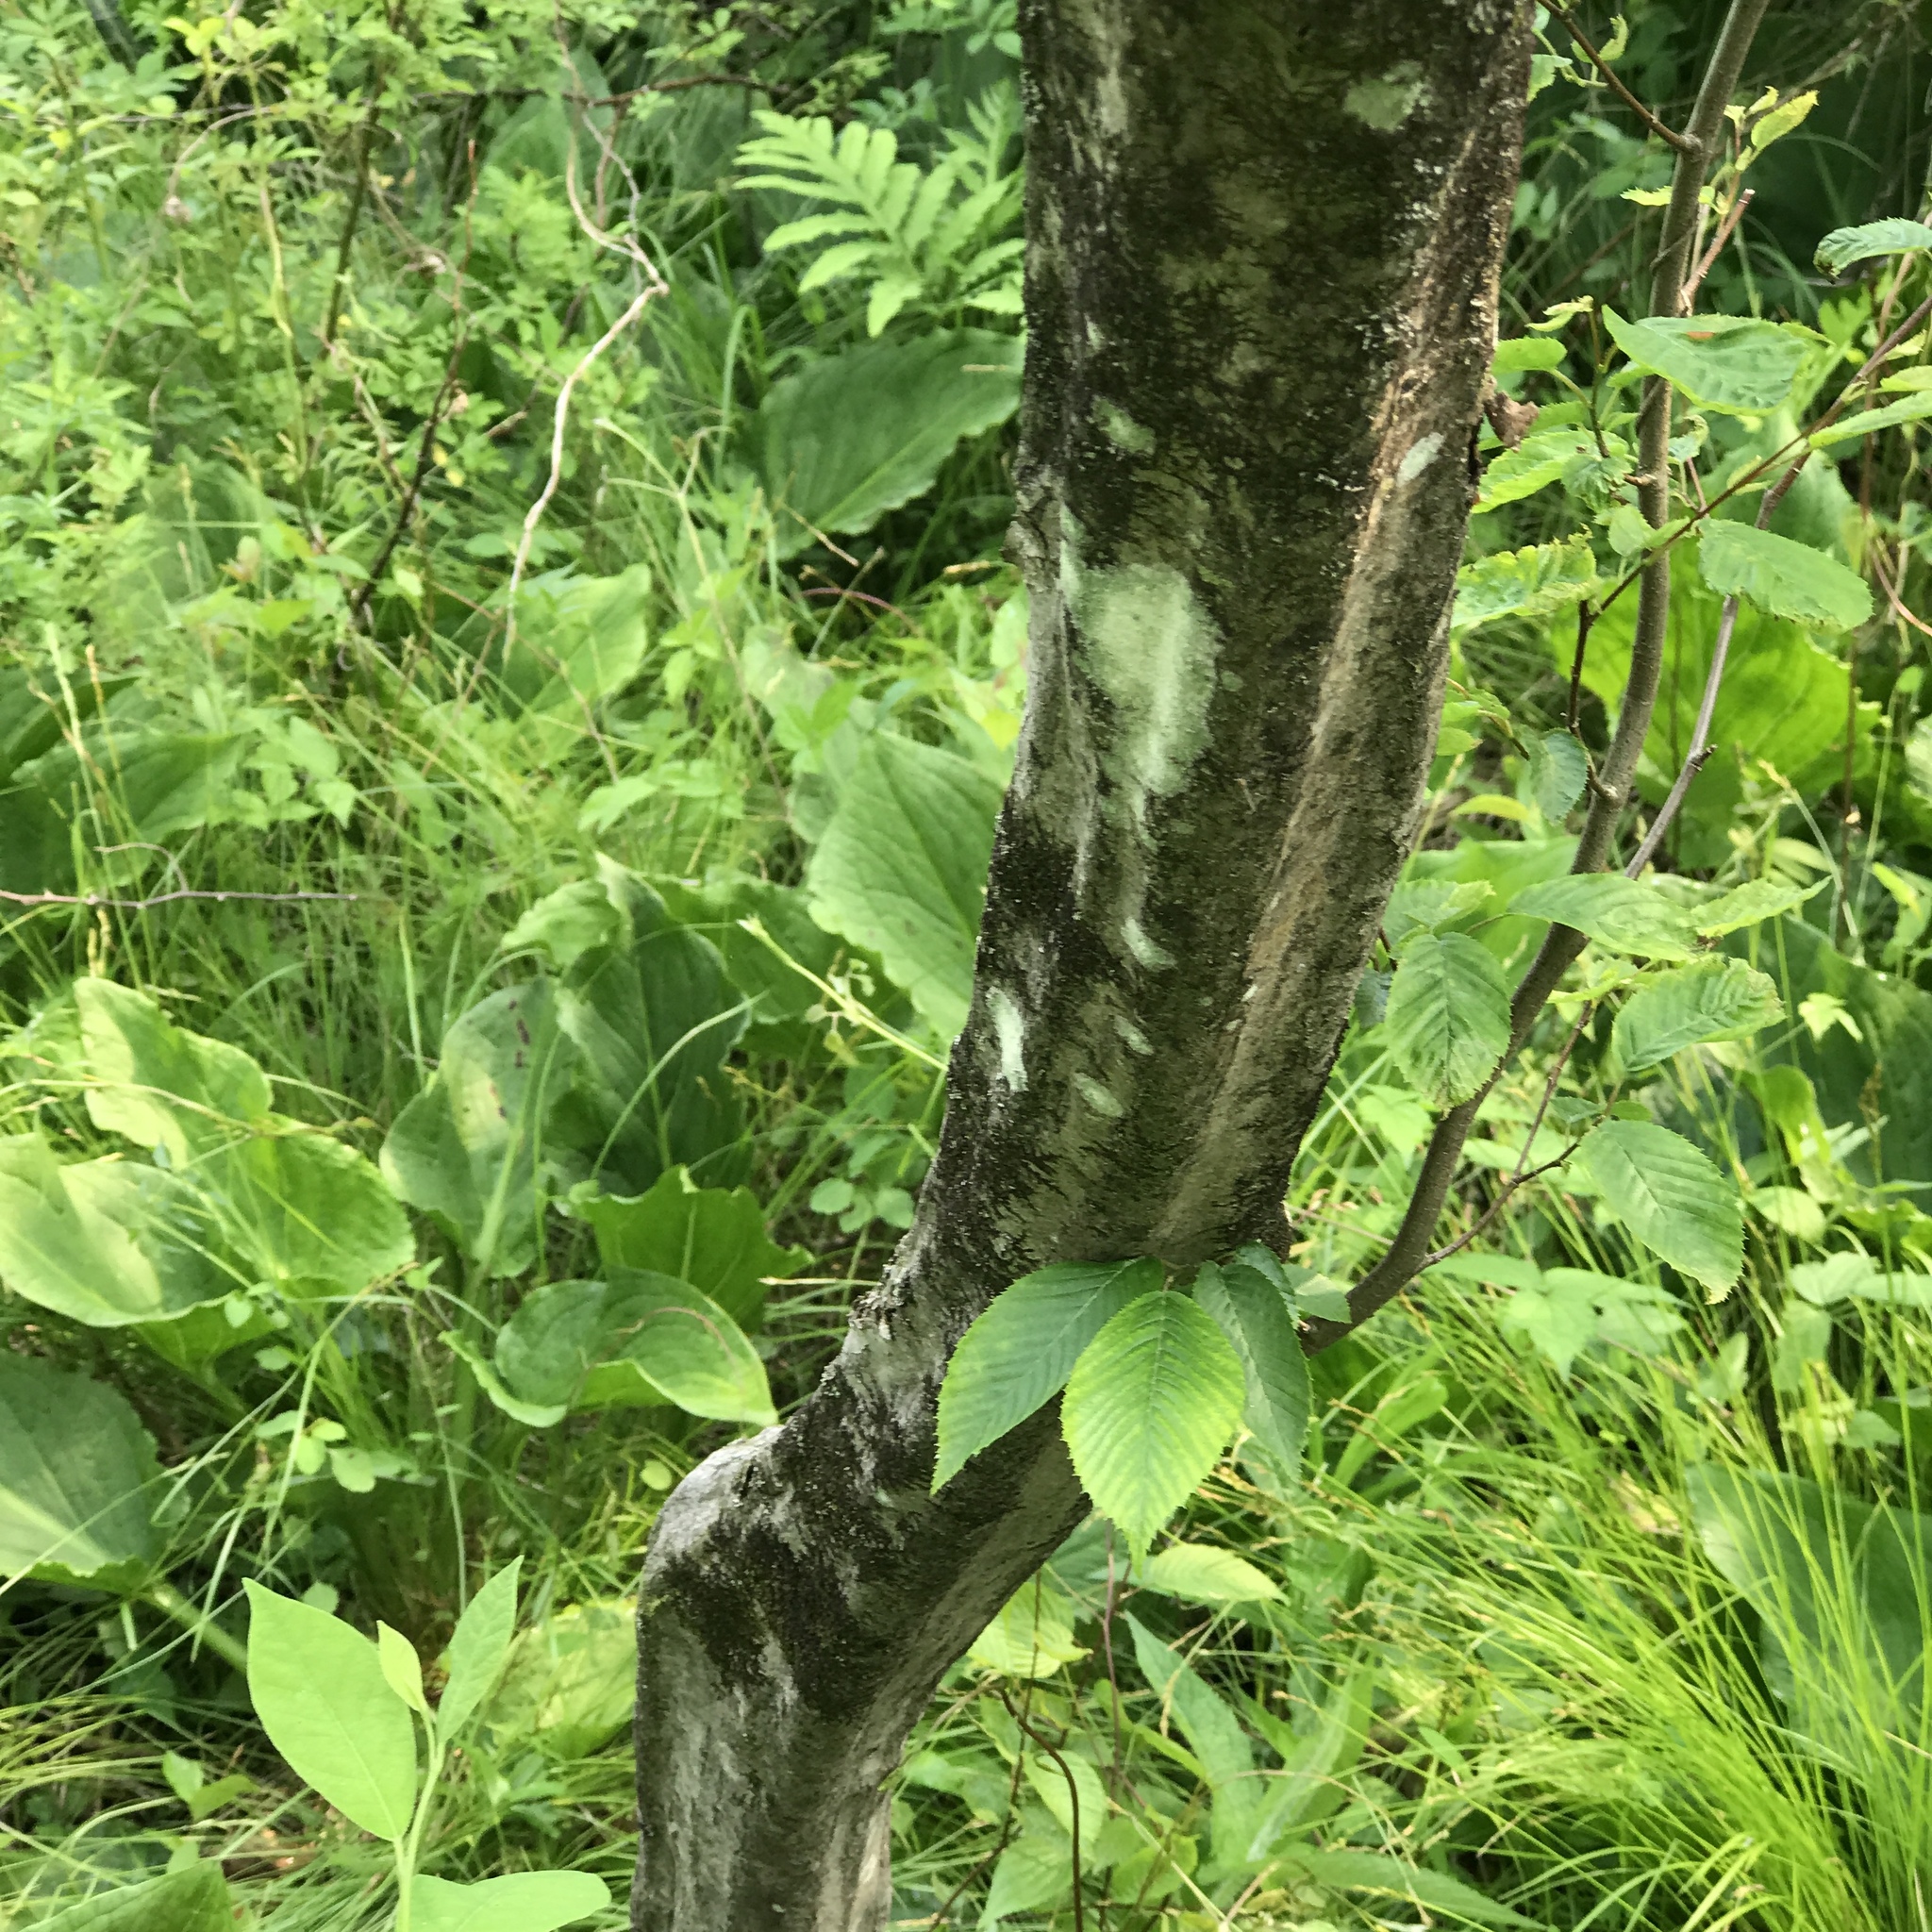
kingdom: Plantae
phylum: Tracheophyta
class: Magnoliopsida
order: Fagales
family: Betulaceae
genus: Carpinus
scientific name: Carpinus caroliniana
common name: American hornbeam
